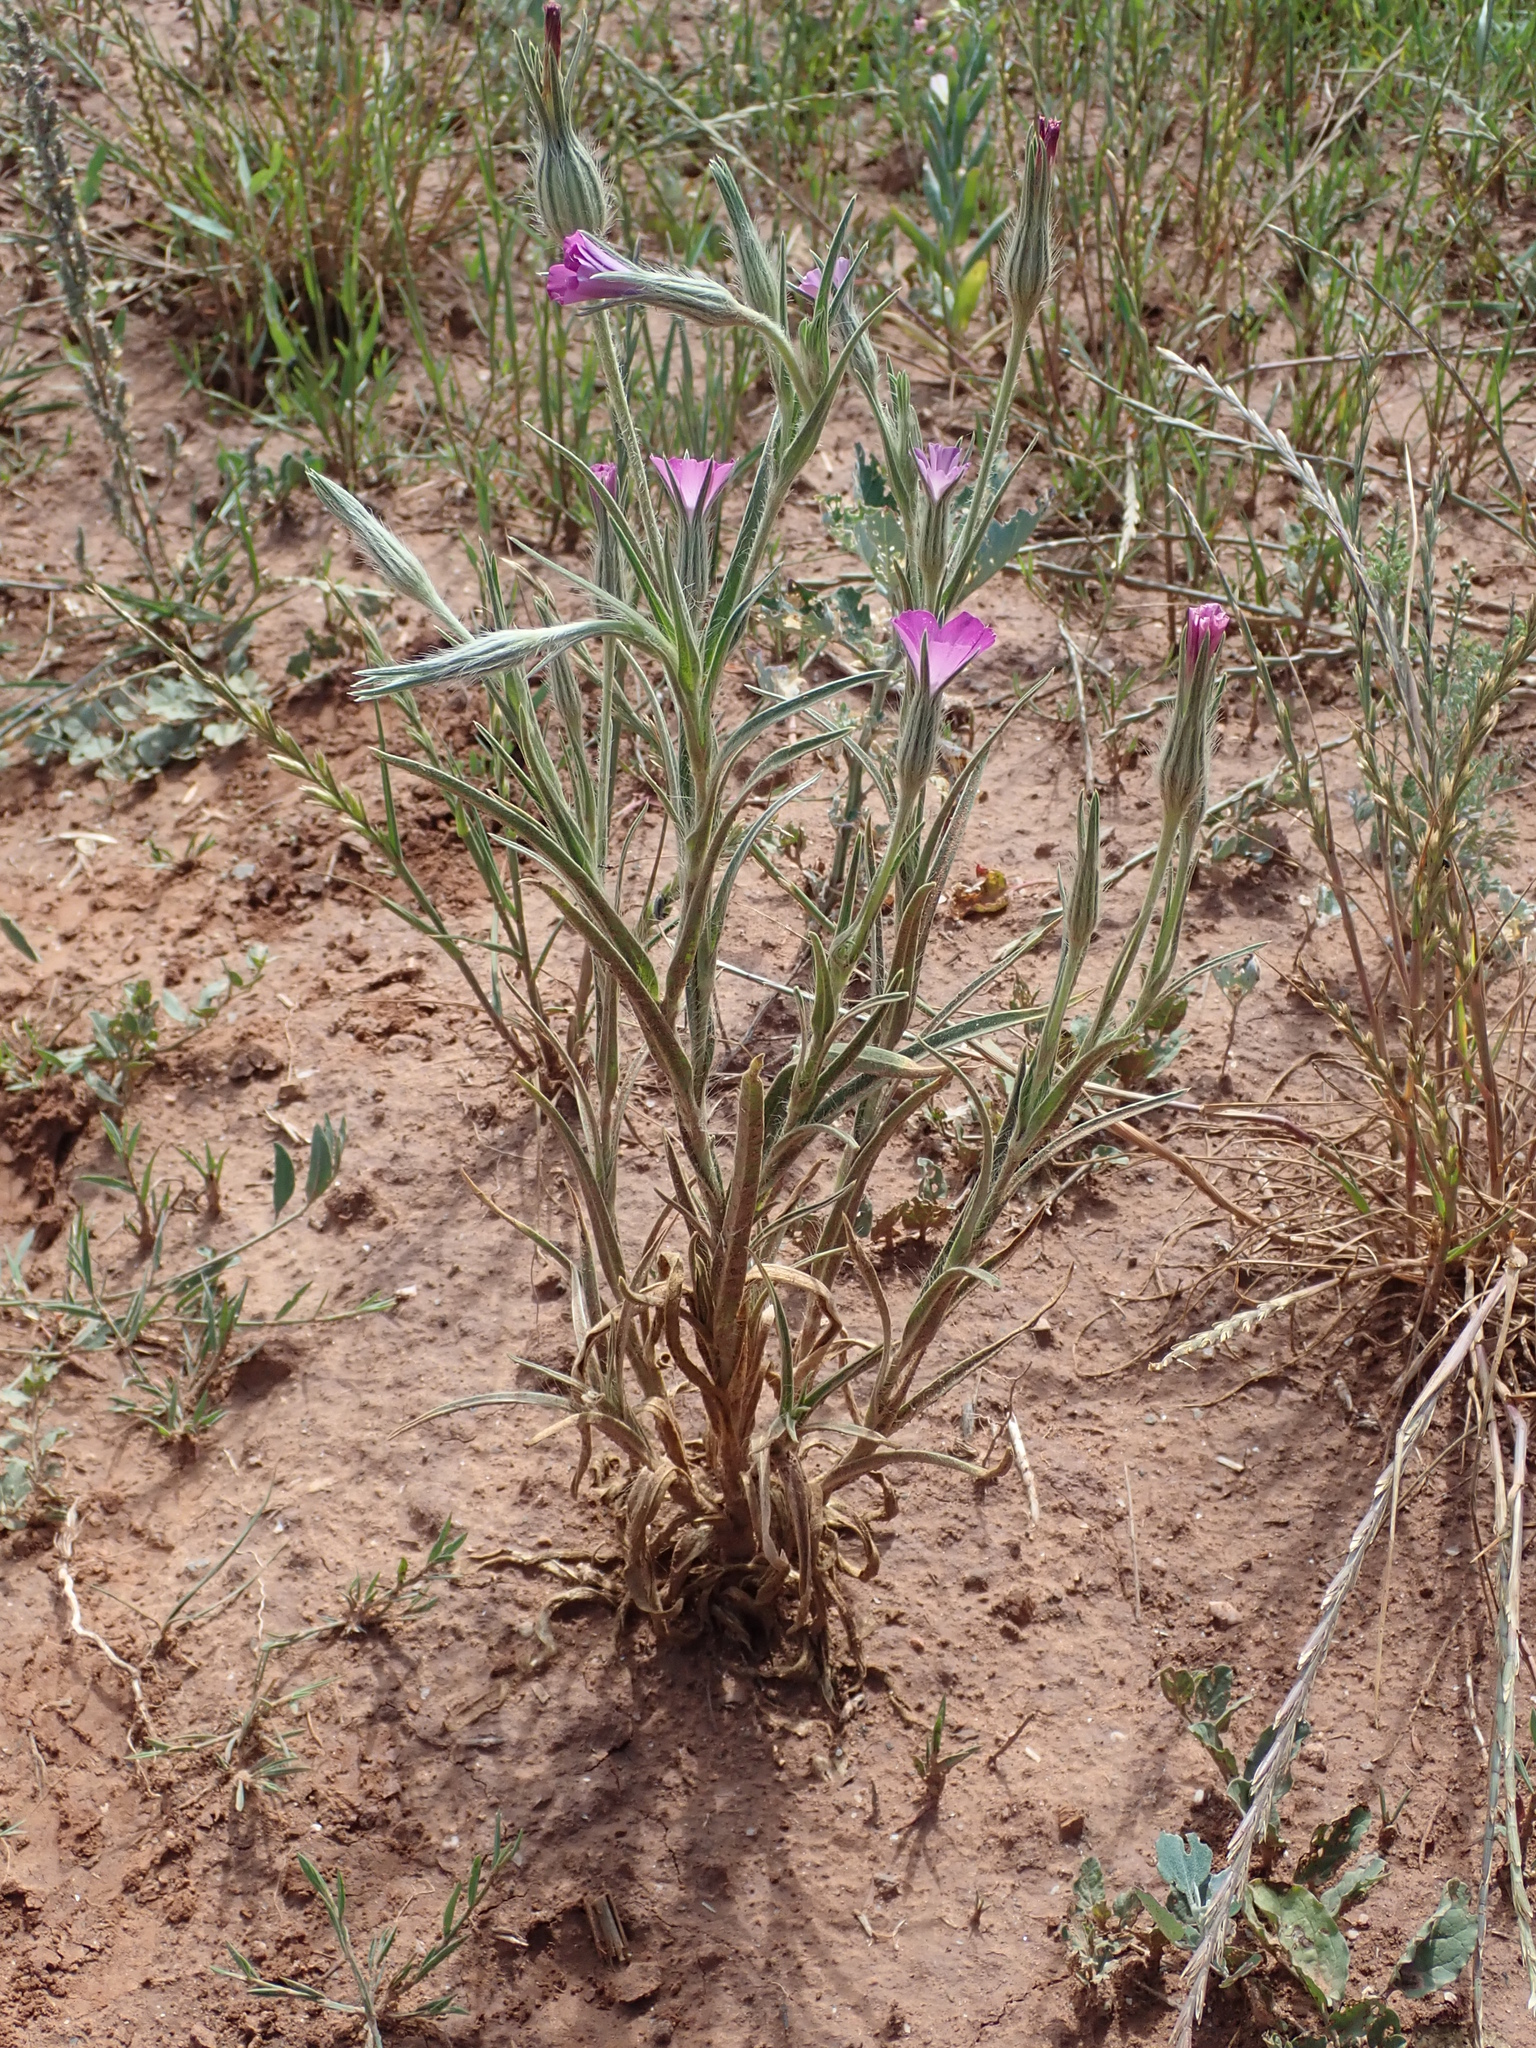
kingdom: Plantae
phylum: Tracheophyta
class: Magnoliopsida
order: Caryophyllales
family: Caryophyllaceae
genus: Agrostemma
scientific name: Agrostemma githago
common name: Common corncockle
